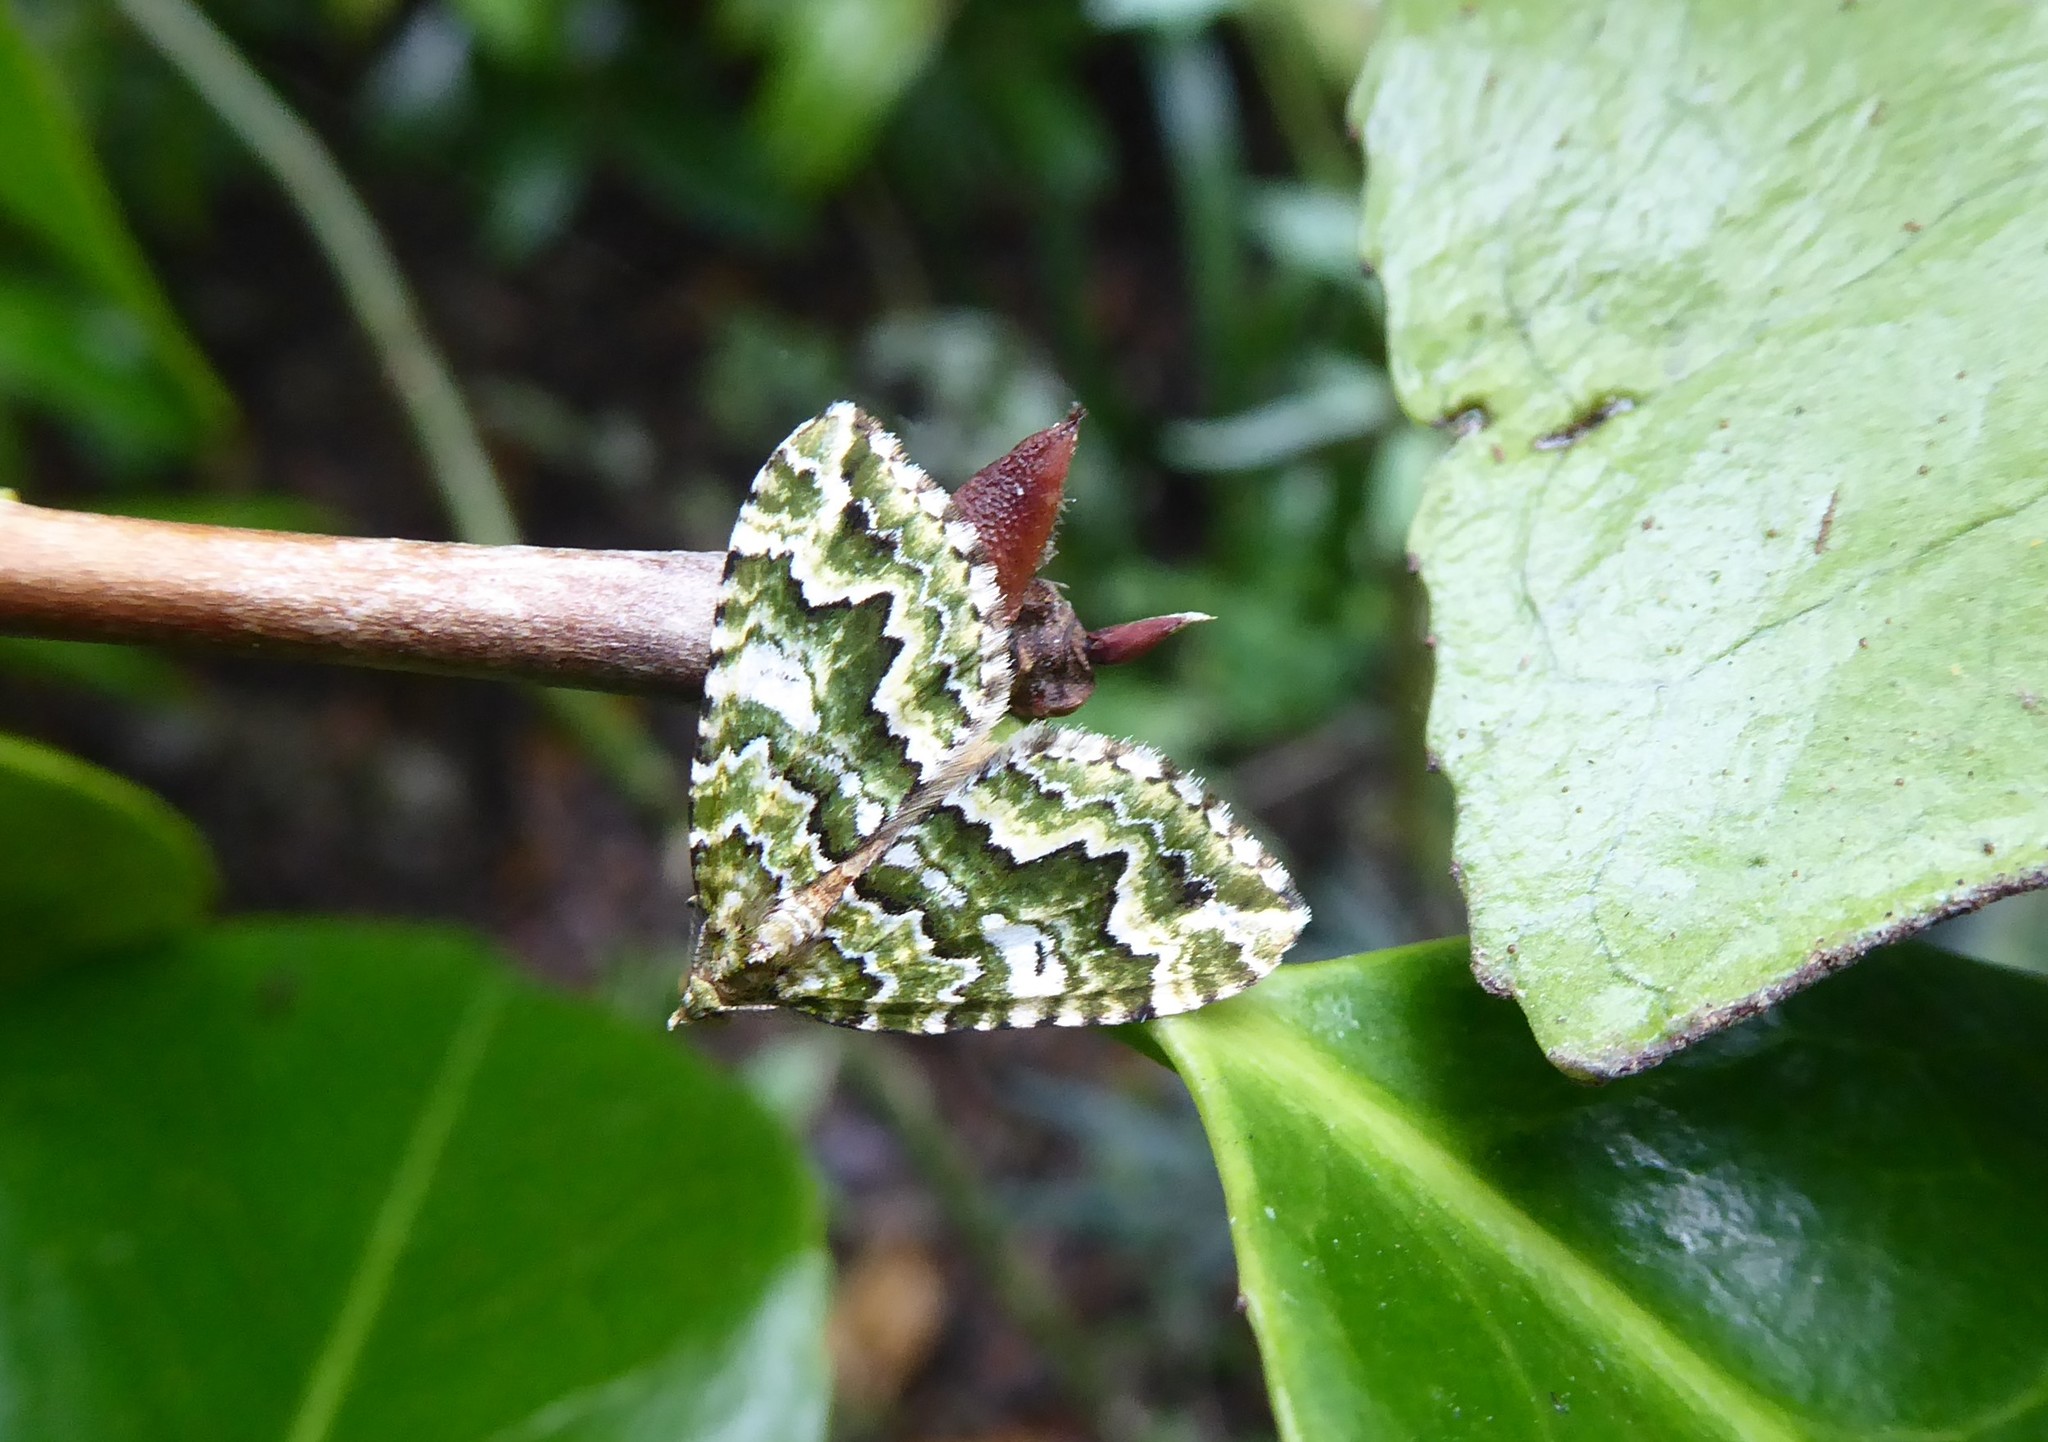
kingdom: Animalia
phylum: Arthropoda
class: Insecta
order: Lepidoptera
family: Geometridae
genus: Asaphodes
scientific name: Asaphodes beata
